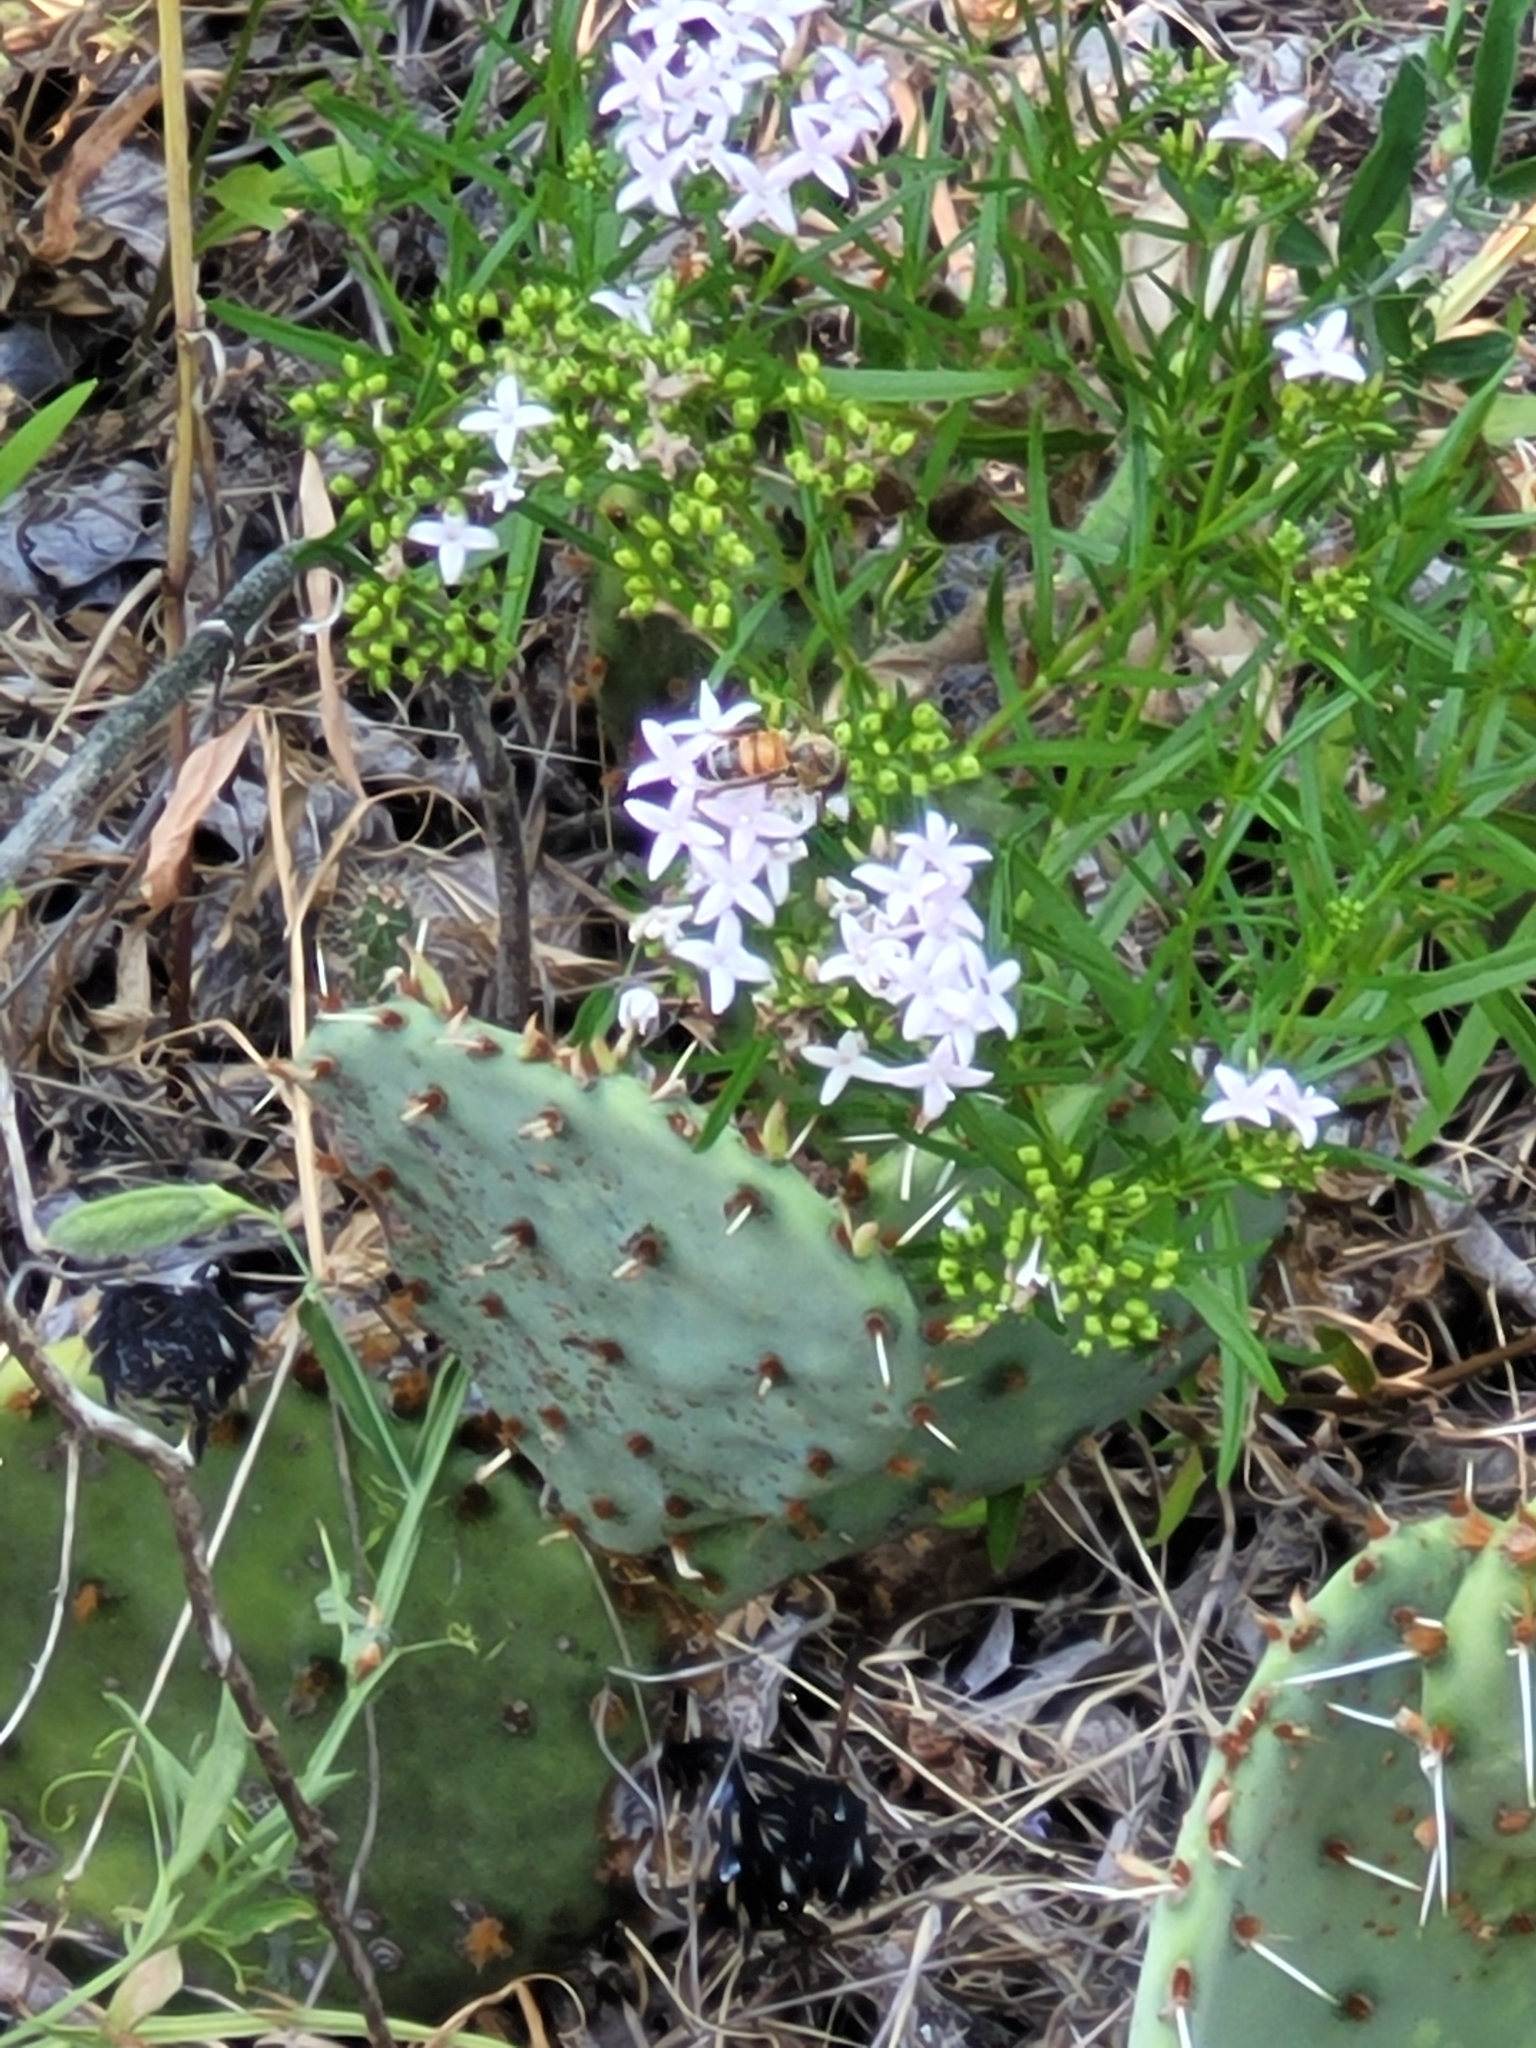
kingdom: Animalia
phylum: Arthropoda
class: Insecta
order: Hymenoptera
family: Apidae
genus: Apis
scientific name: Apis mellifera
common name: Honey bee
